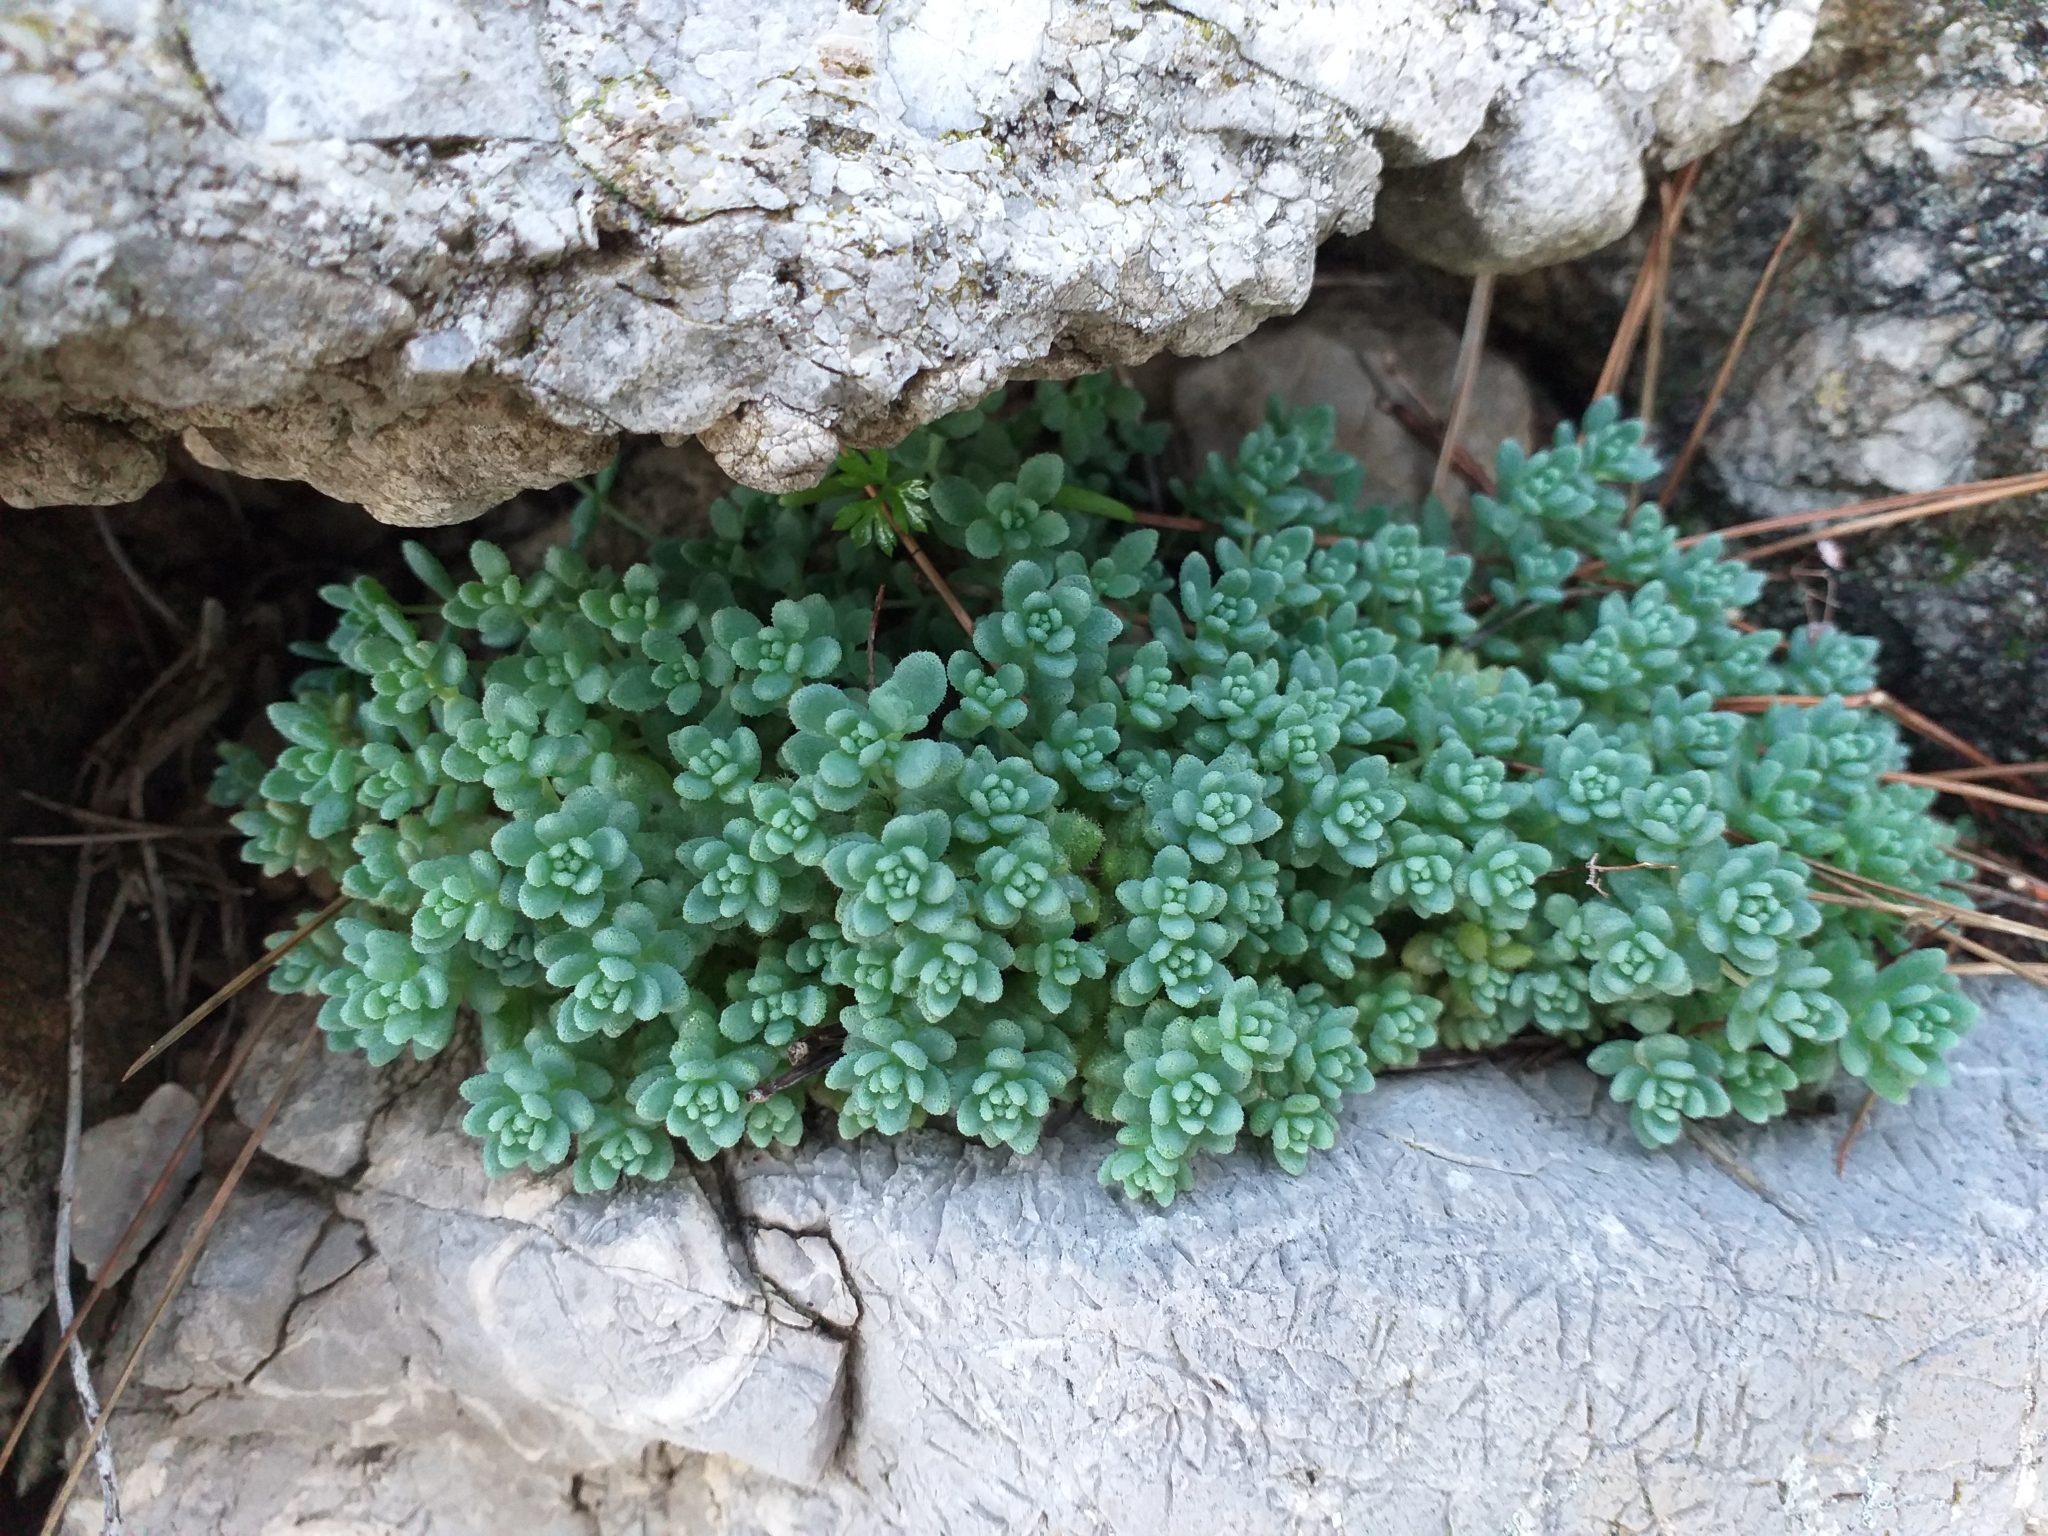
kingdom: Plantae
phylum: Tracheophyta
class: Magnoliopsida
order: Saxifragales
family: Crassulaceae
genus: Sedum
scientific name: Sedum dasyphyllum
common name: Thick-leaf stonecrop
